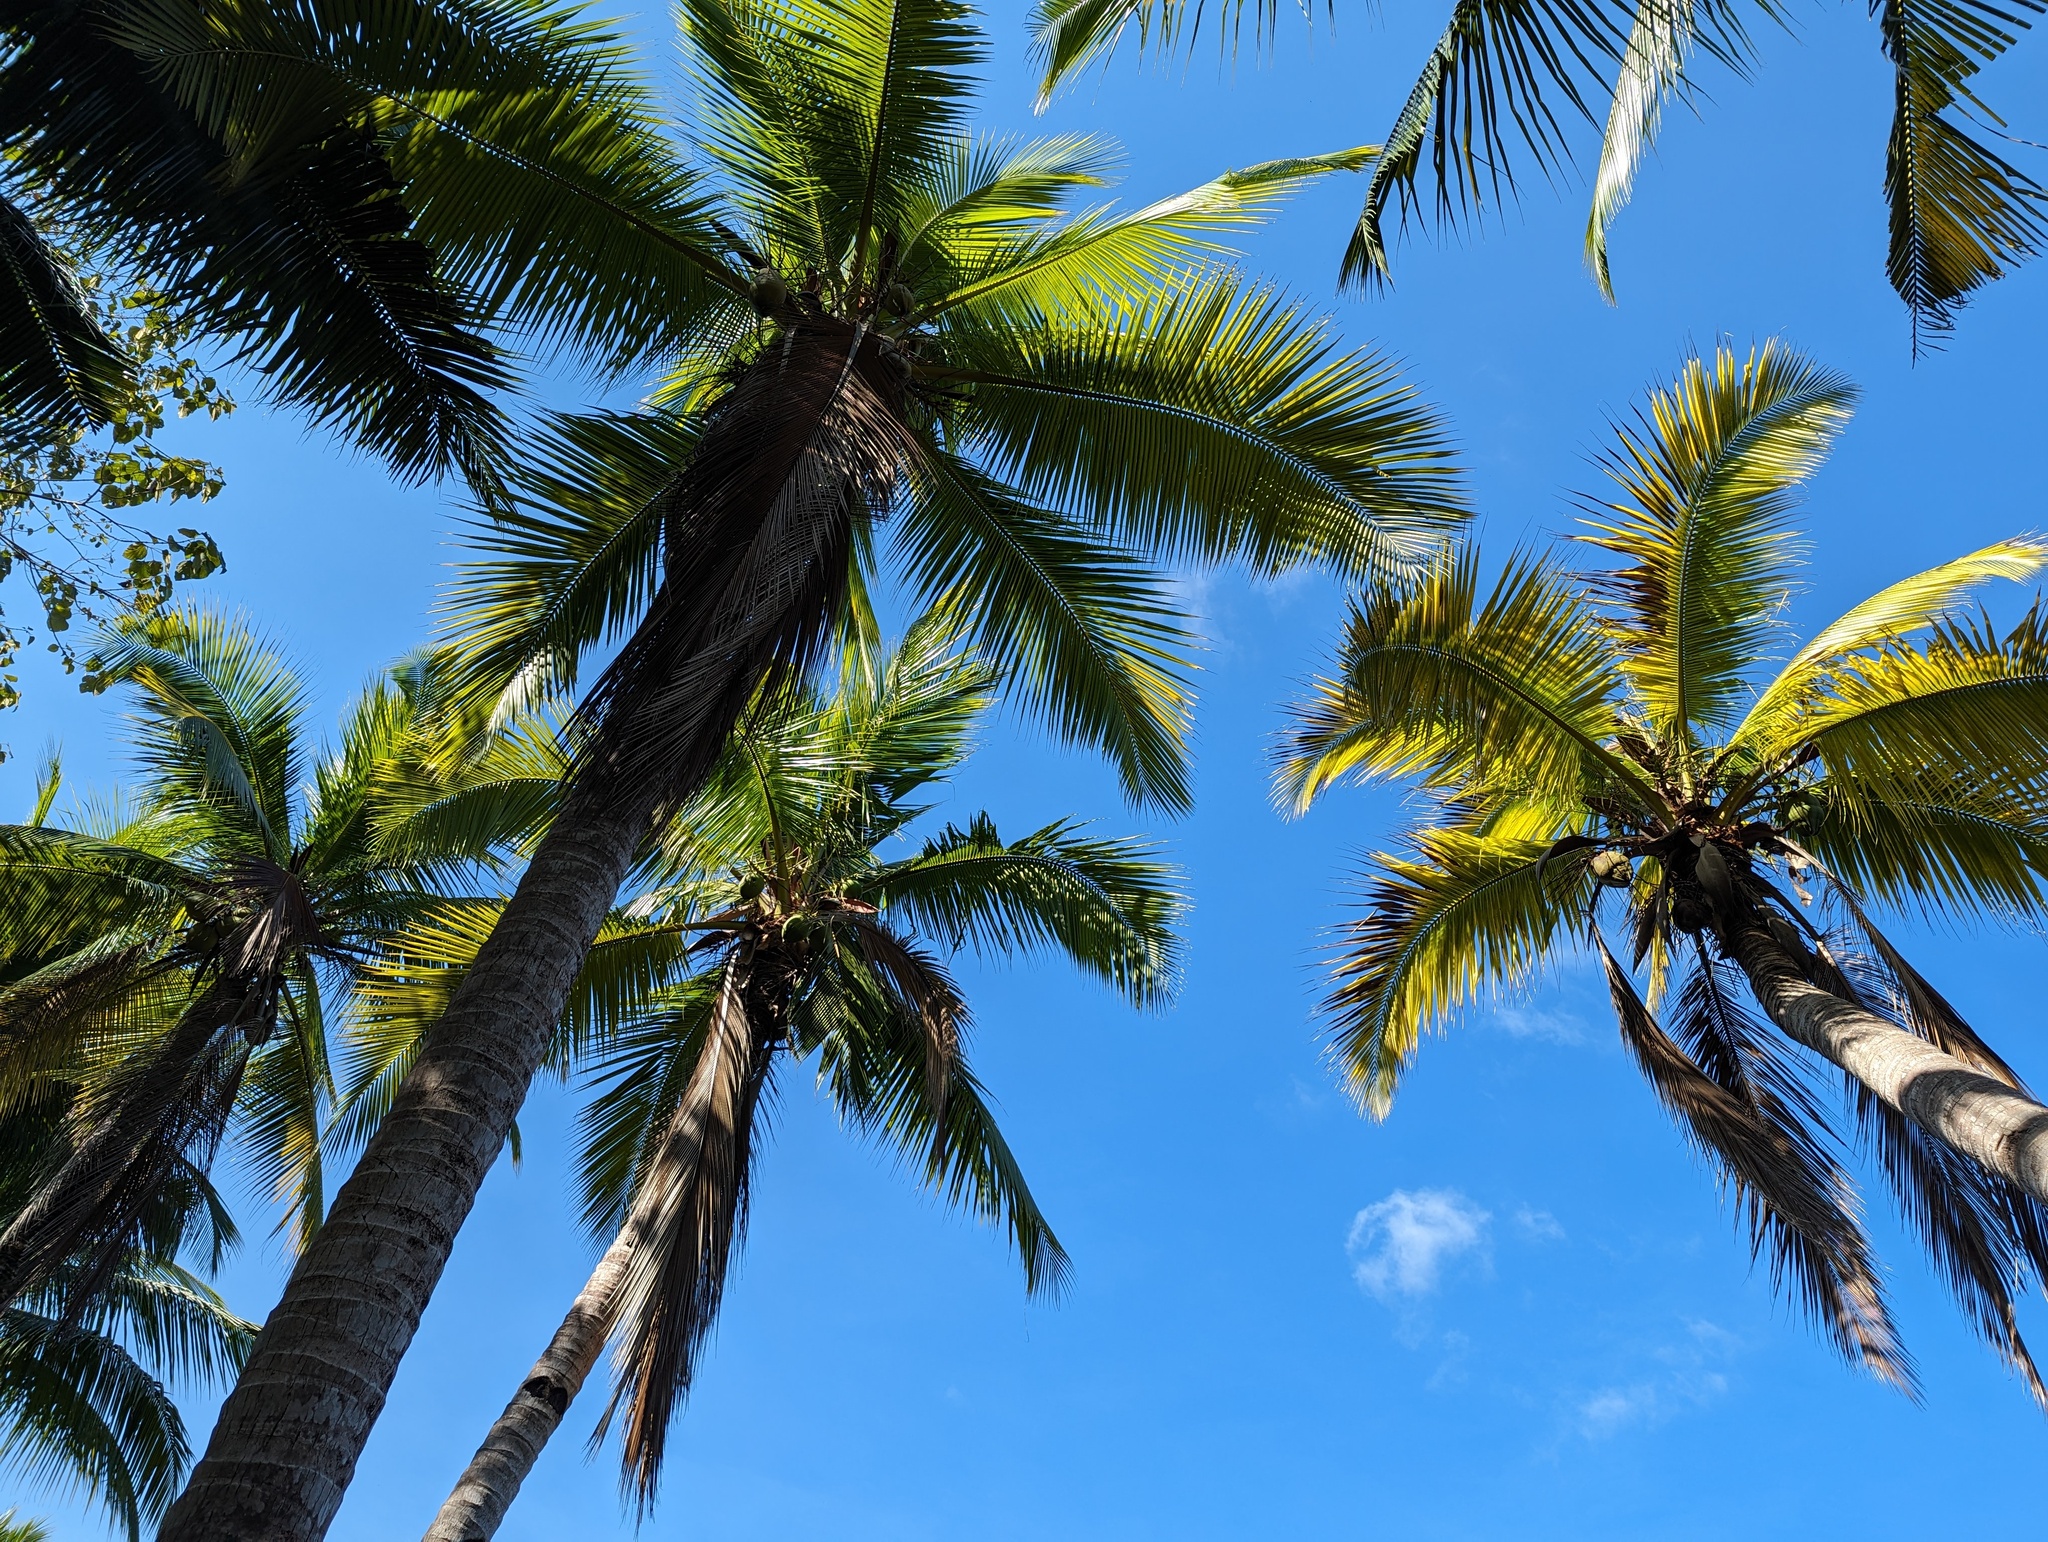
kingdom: Plantae
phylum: Tracheophyta
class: Liliopsida
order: Arecales
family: Arecaceae
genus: Cocos
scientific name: Cocos nucifera
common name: Coconut palm
